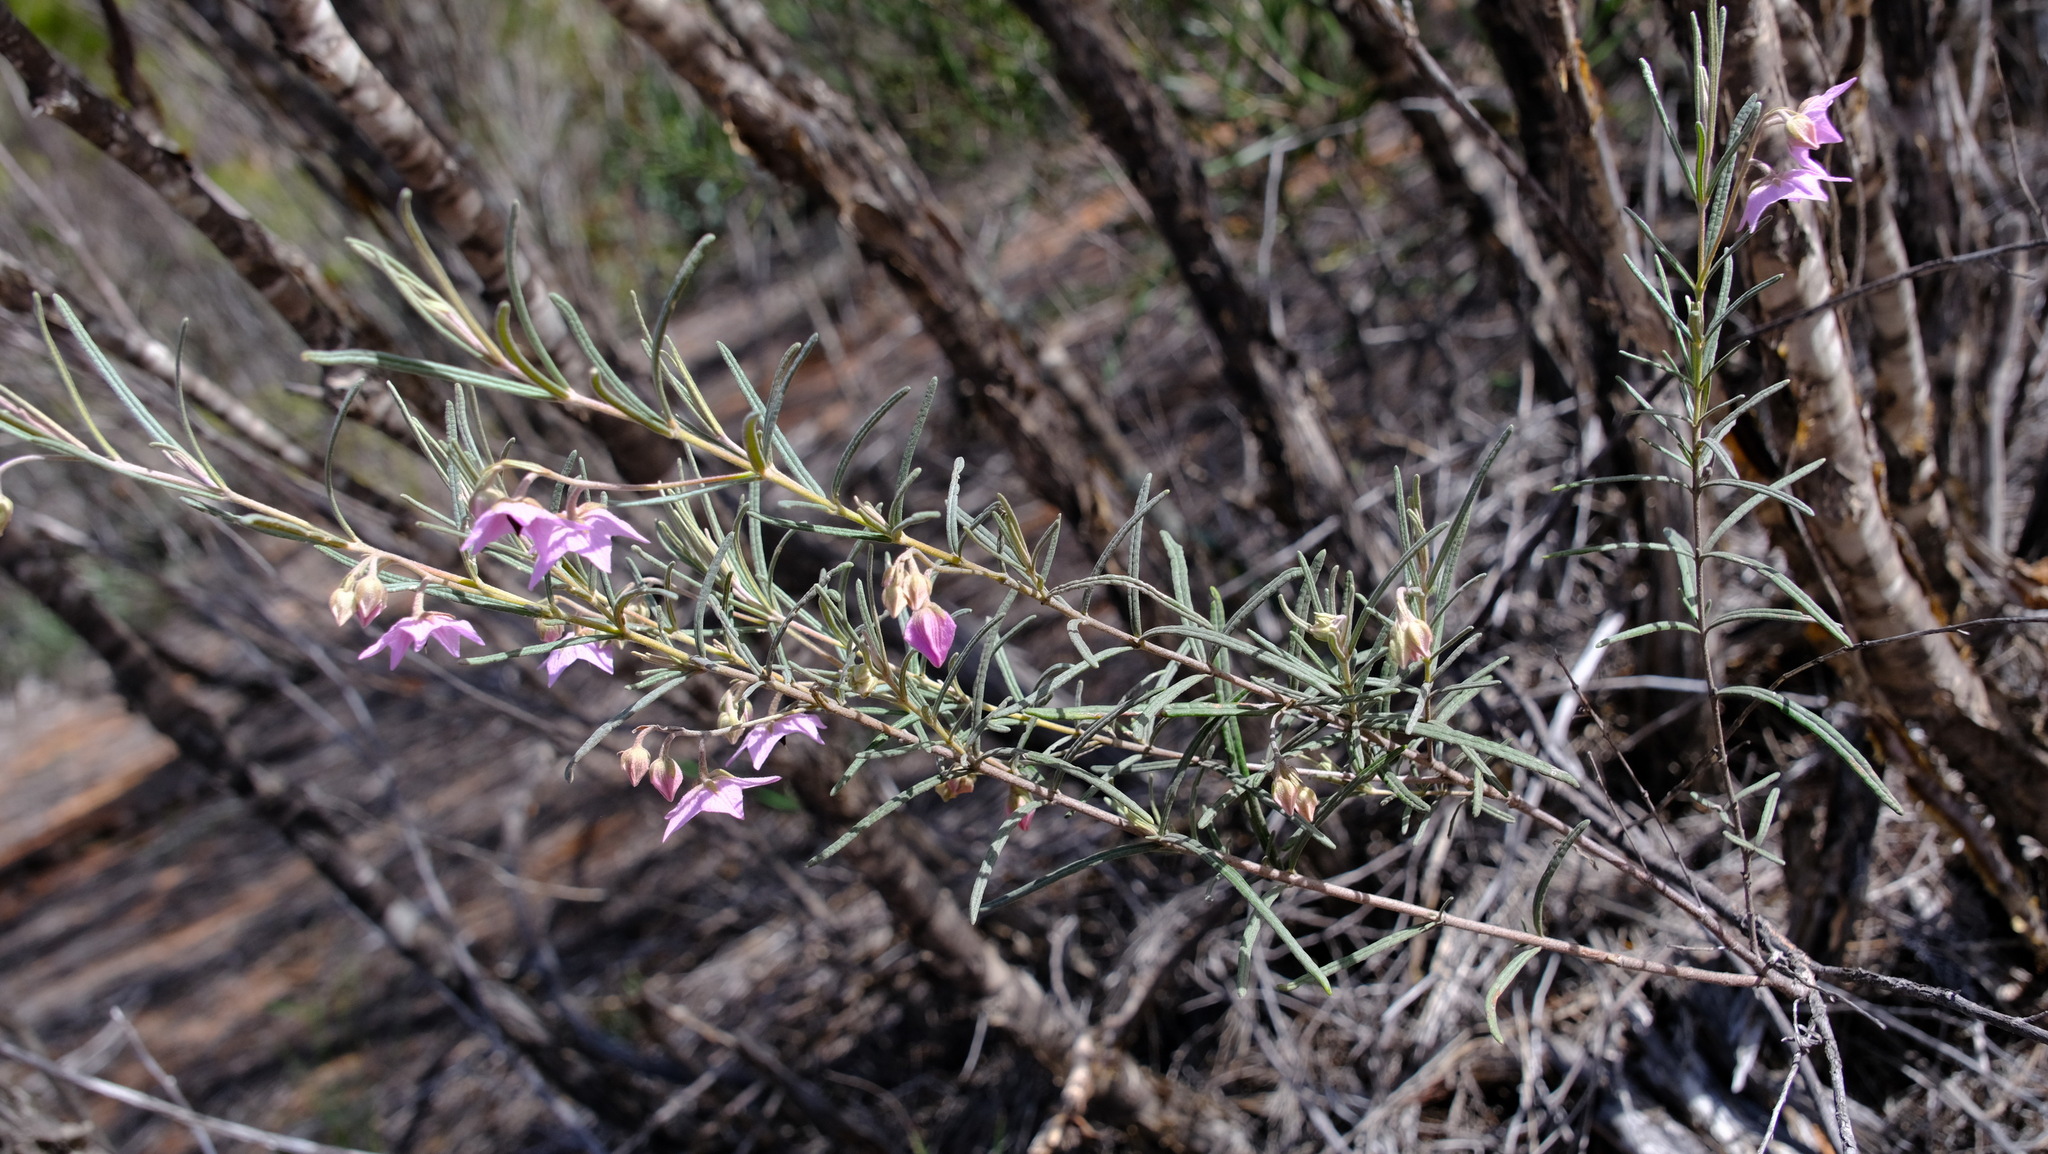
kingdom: Plantae
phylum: Tracheophyta
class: Magnoliopsida
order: Malvales
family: Malvaceae
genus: Guichenotia
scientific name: Guichenotia macrantha
